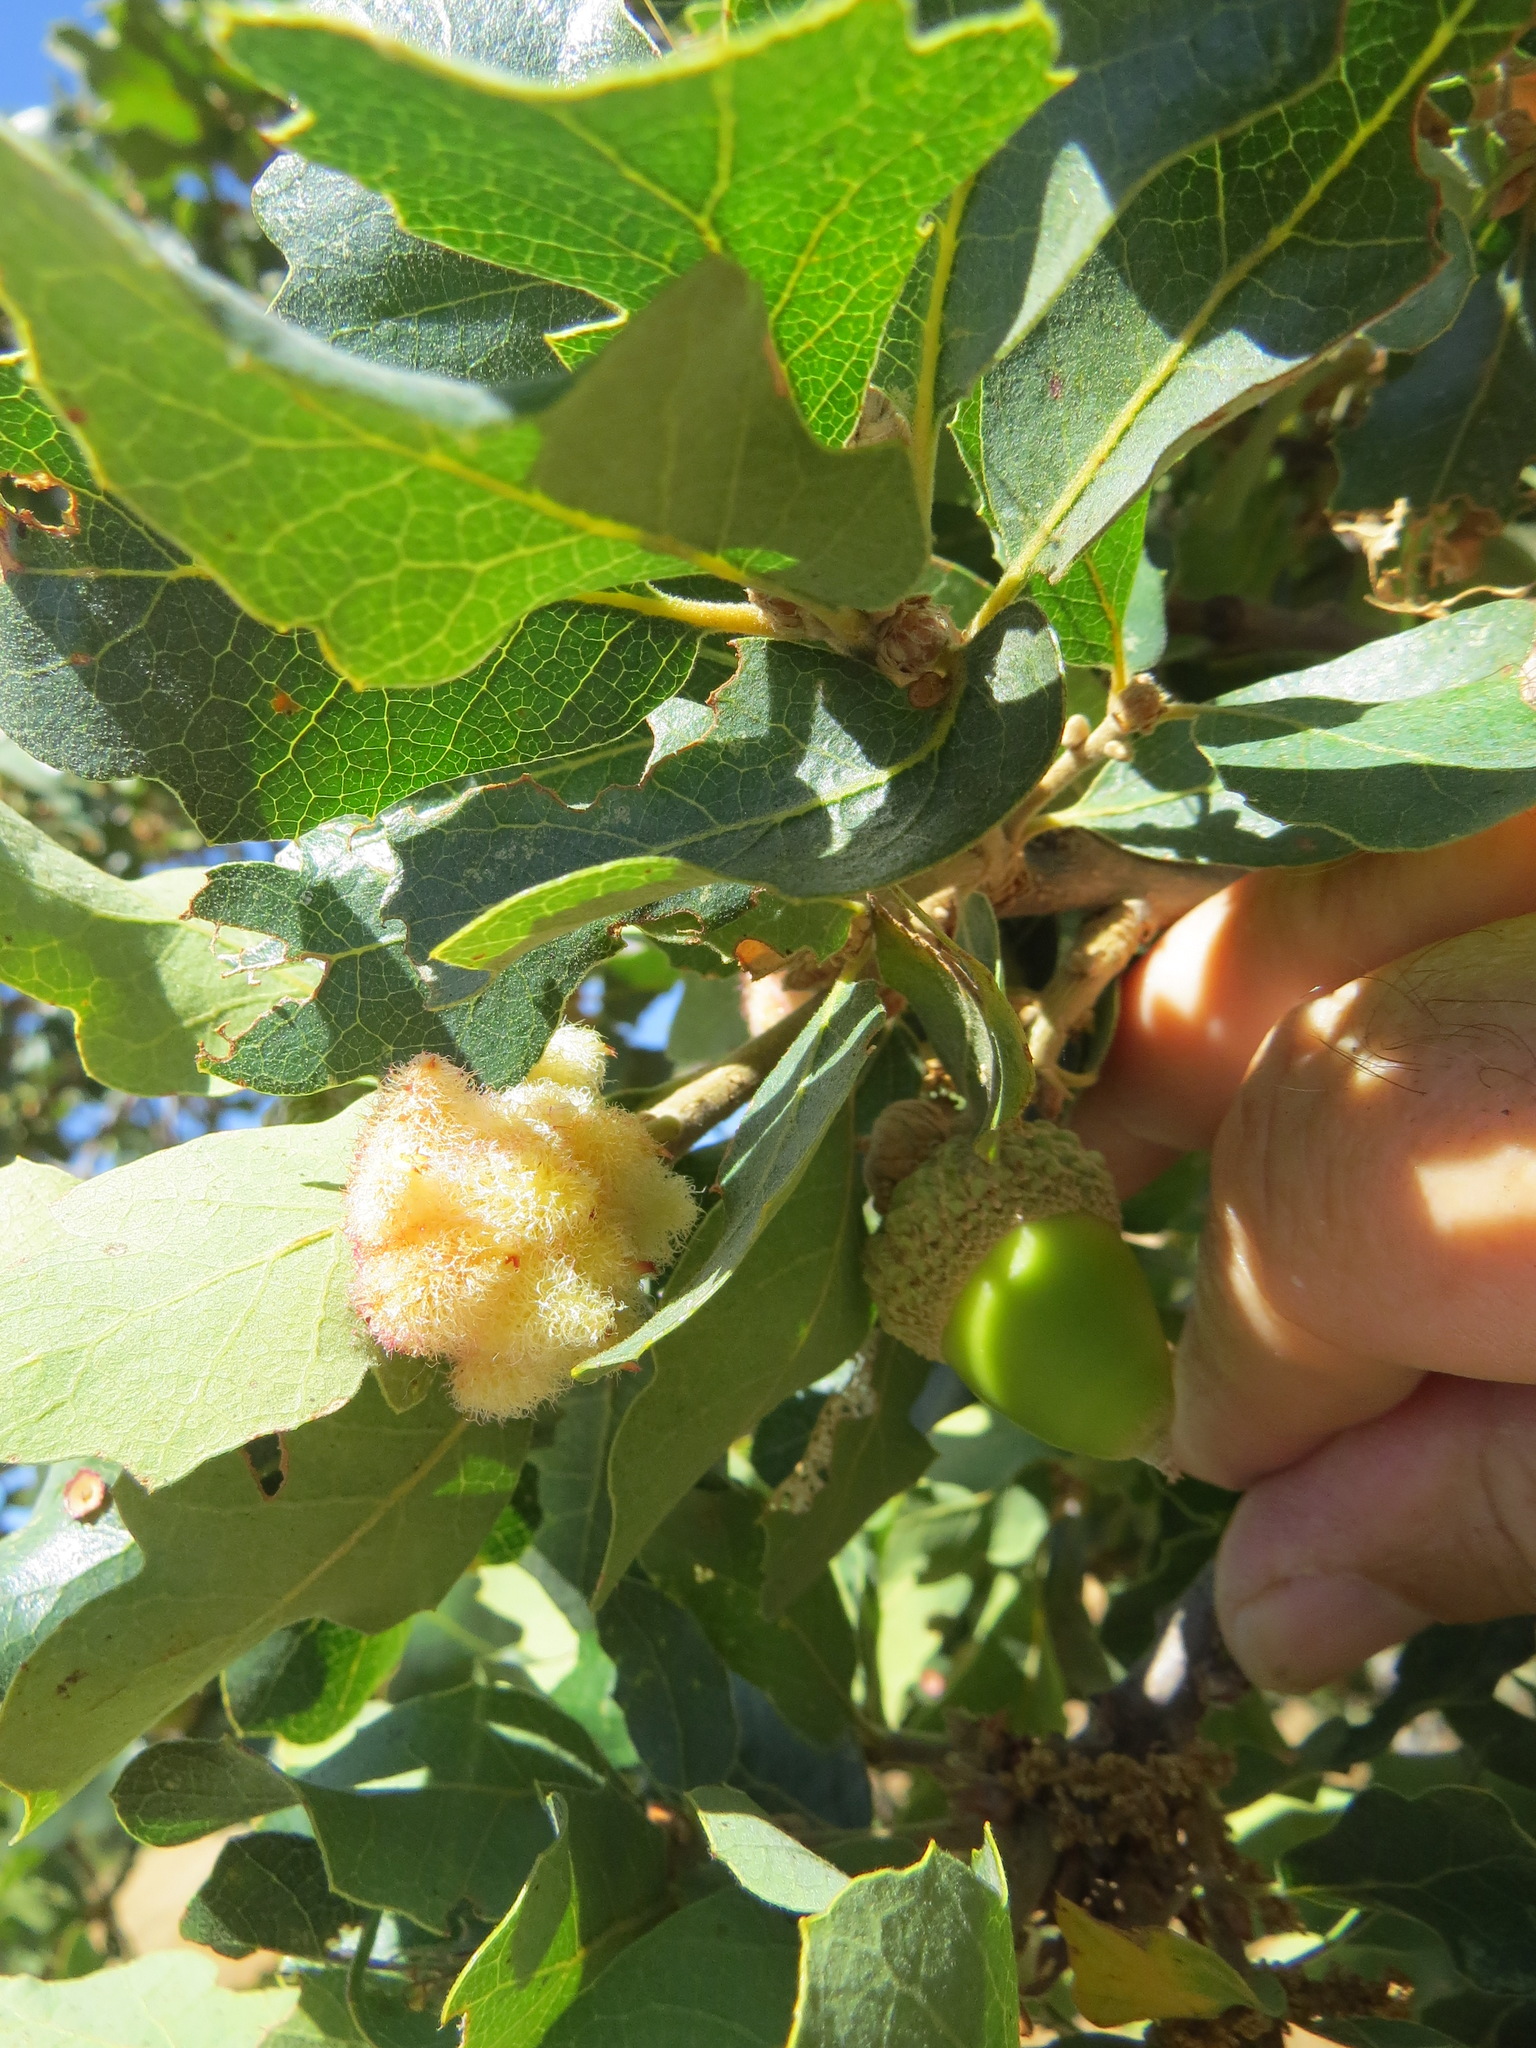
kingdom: Animalia
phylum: Arthropoda
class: Insecta
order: Hymenoptera
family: Cynipidae
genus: Andricus
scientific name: Andricus
